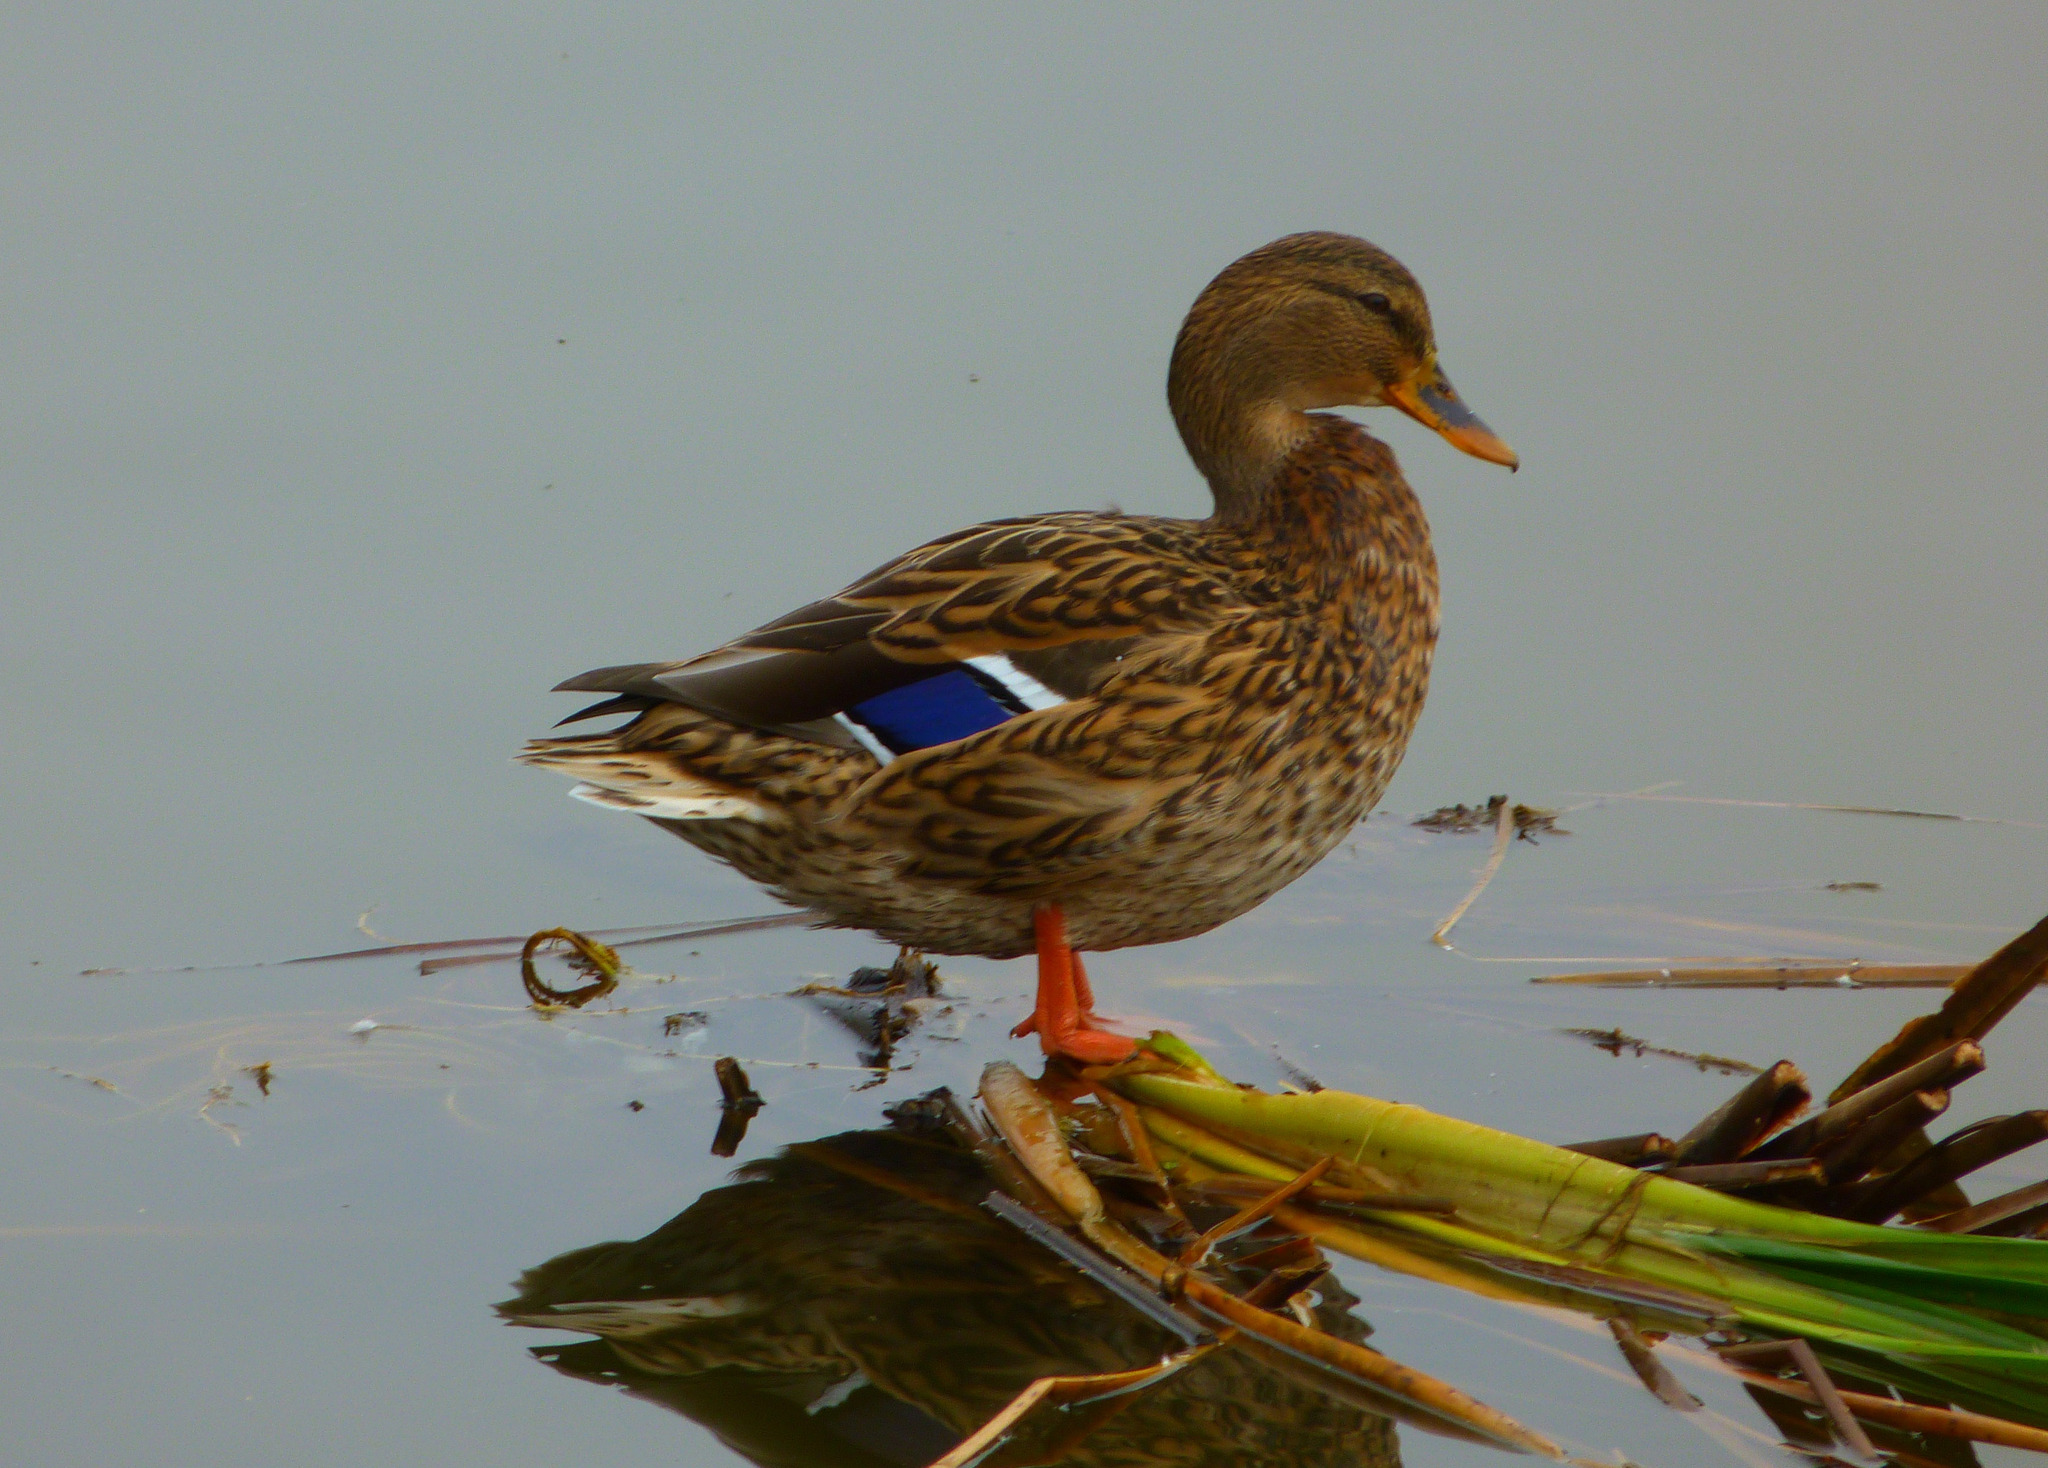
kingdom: Animalia
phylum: Chordata
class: Aves
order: Anseriformes
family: Anatidae
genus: Anas
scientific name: Anas platyrhynchos
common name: Mallard
